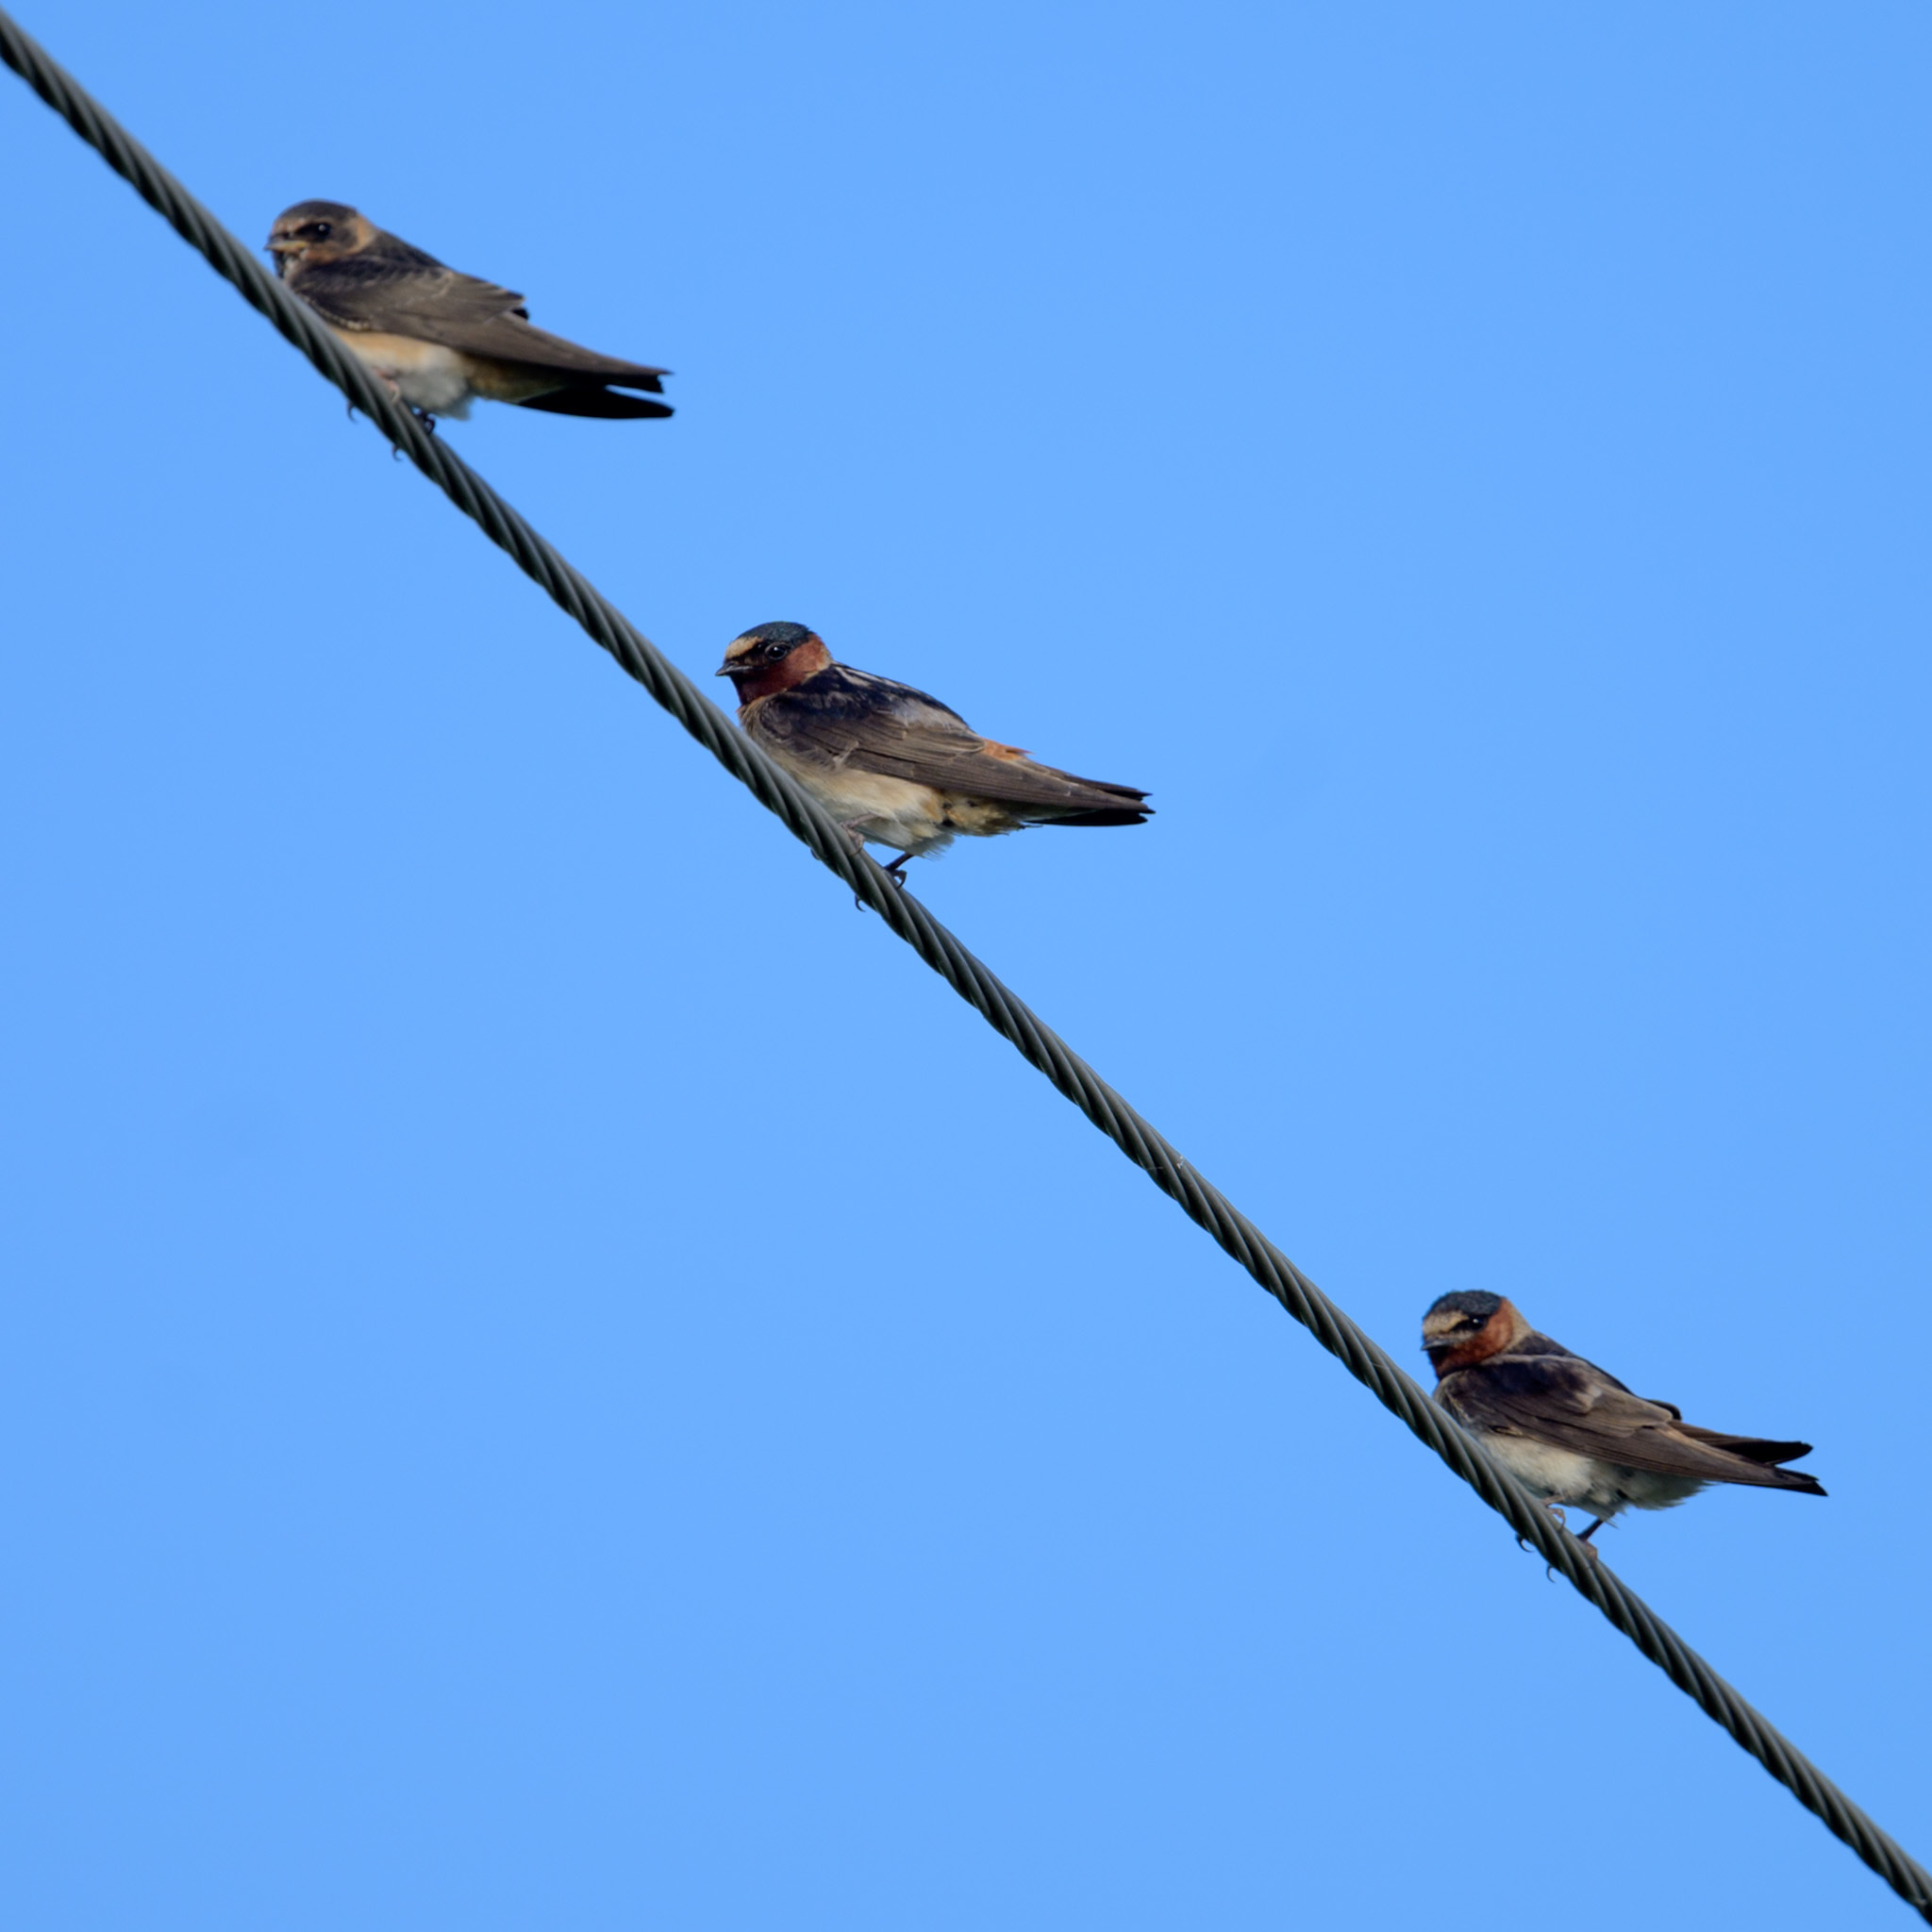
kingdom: Animalia
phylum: Chordata
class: Aves
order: Passeriformes
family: Hirundinidae
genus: Petrochelidon
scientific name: Petrochelidon pyrrhonota
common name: American cliff swallow
